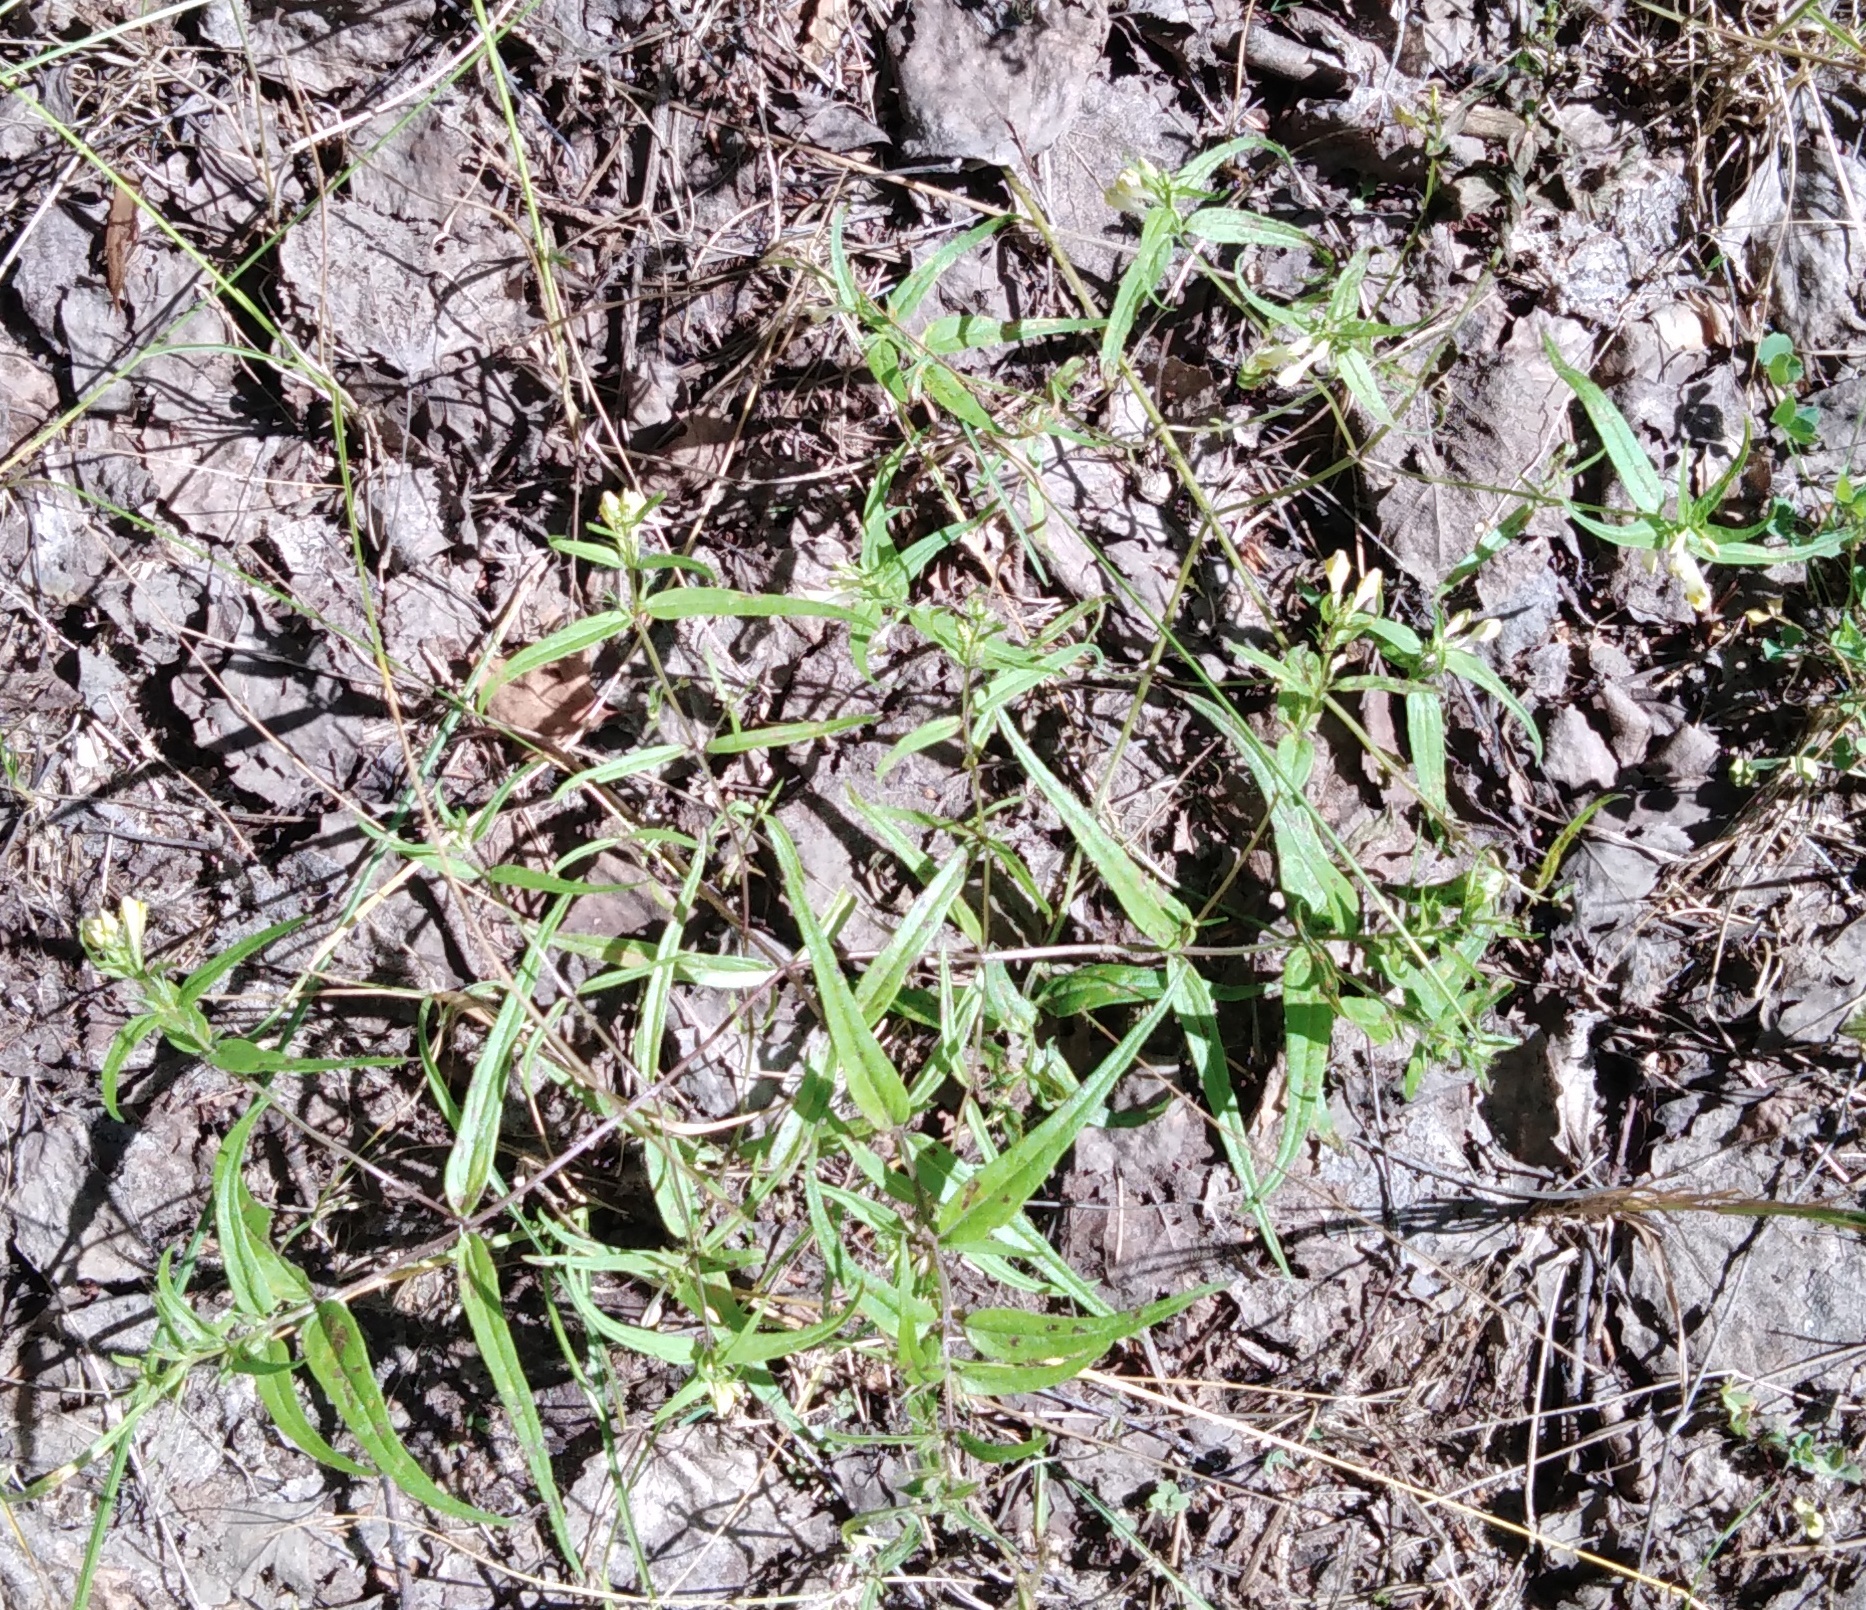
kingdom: Plantae
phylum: Tracheophyta
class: Magnoliopsida
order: Lamiales
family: Orobanchaceae
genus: Melampyrum
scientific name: Melampyrum pratense
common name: Common cow-wheat
